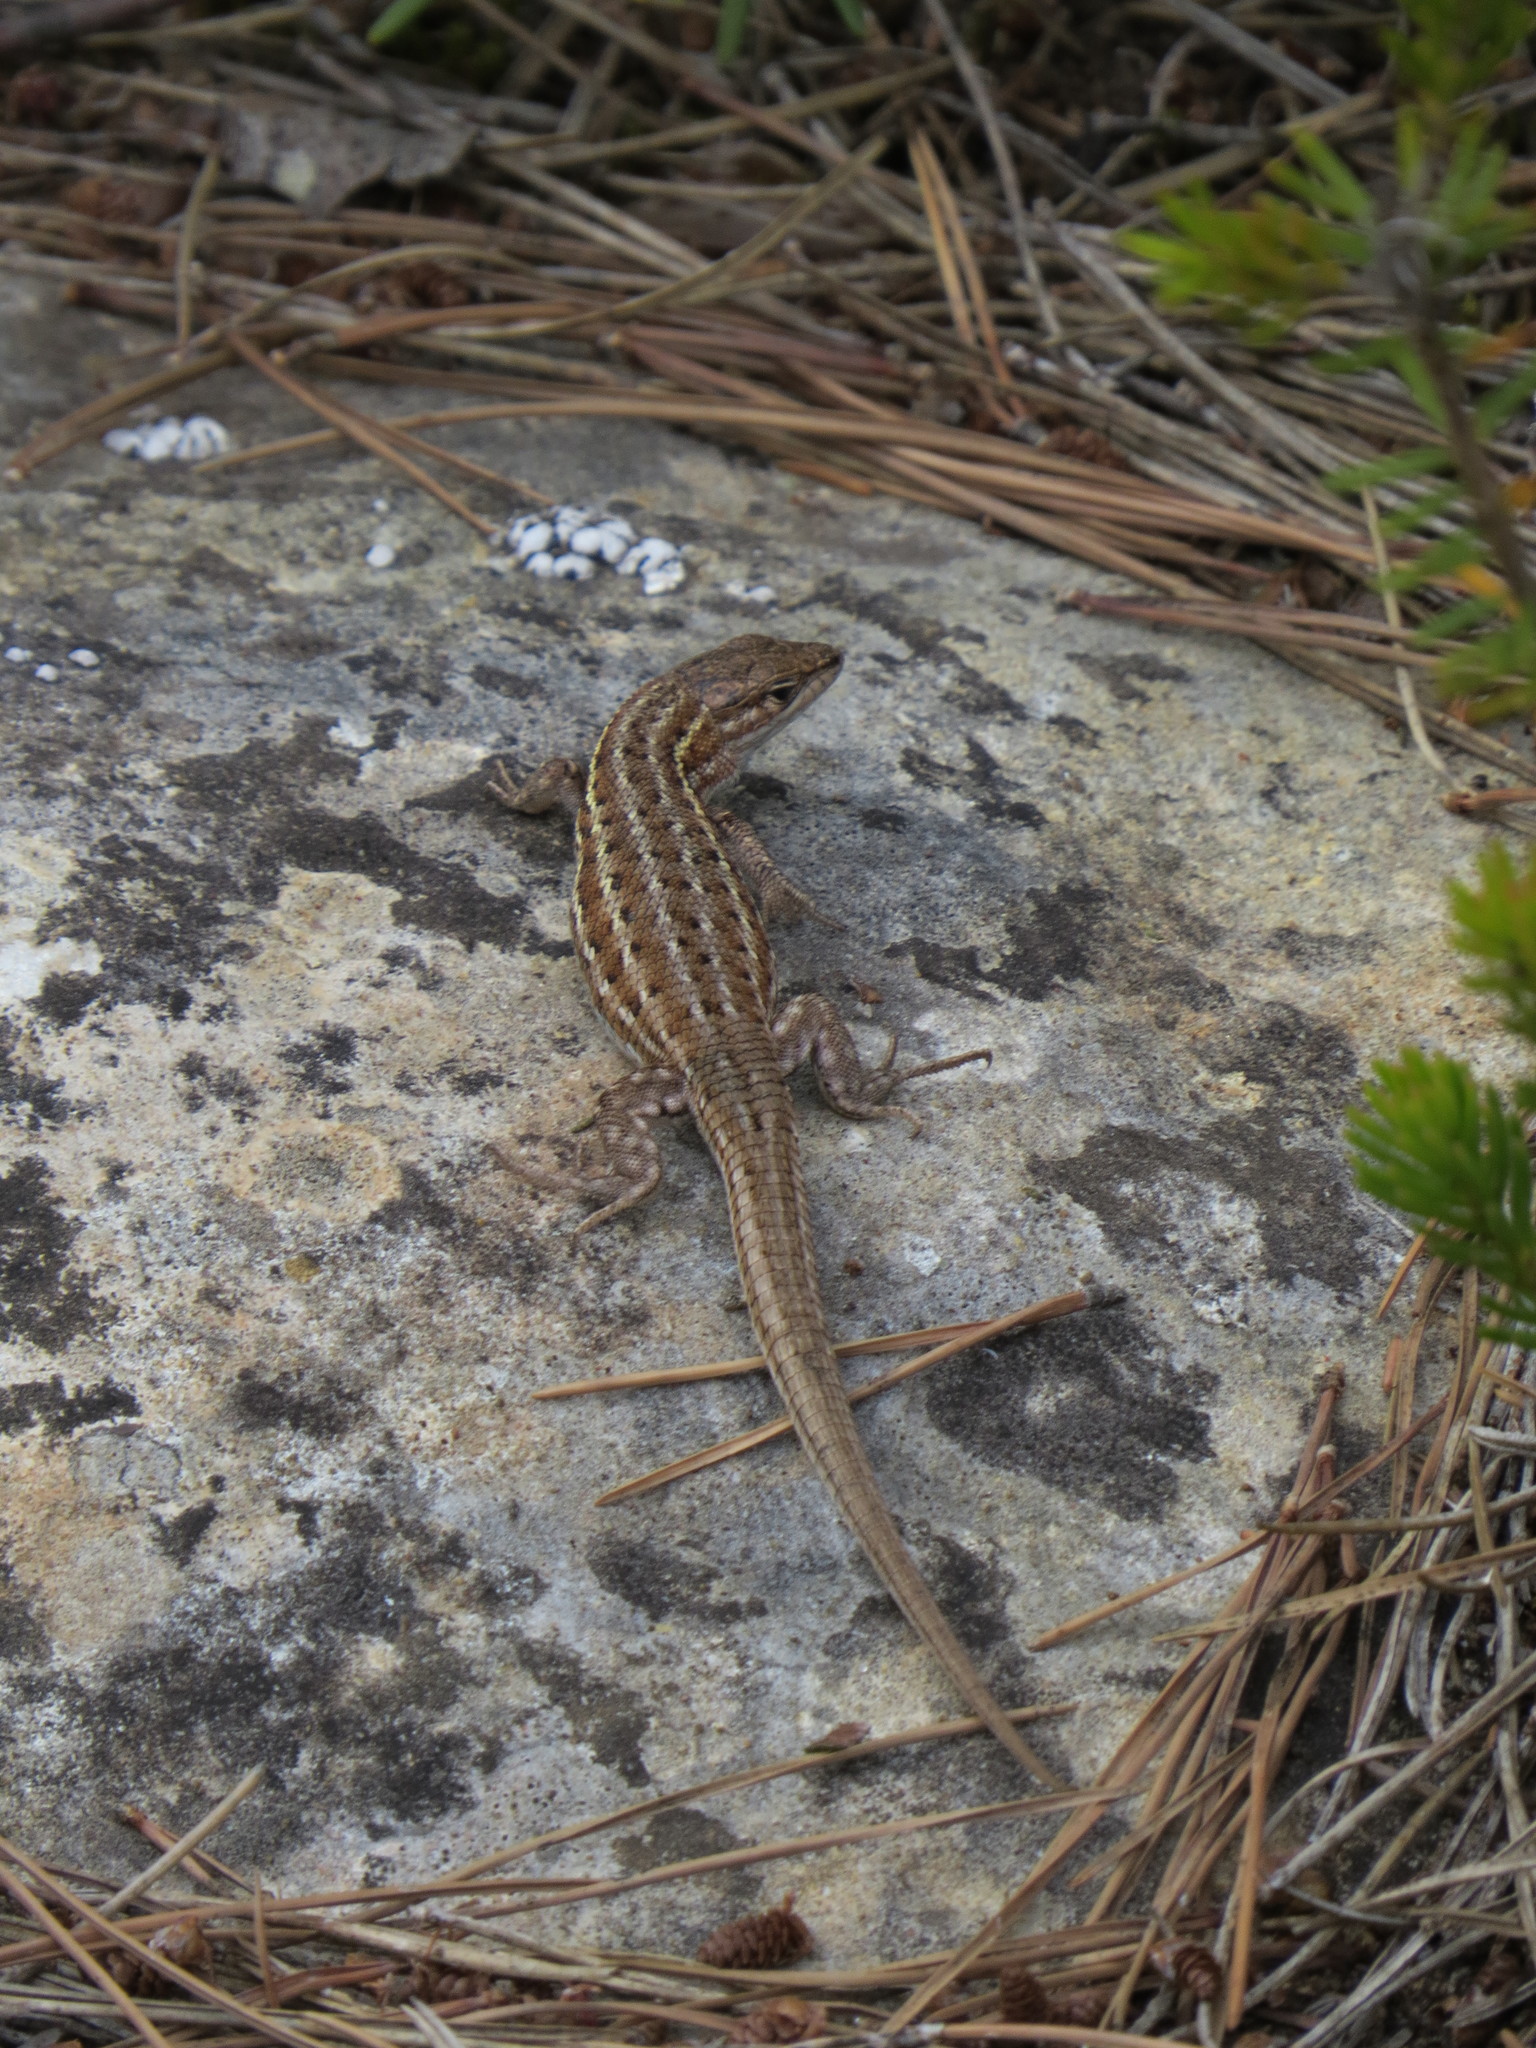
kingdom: Animalia
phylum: Chordata
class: Squamata
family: Lacertidae
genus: Psammodromus
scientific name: Psammodromus edwarsianus
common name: East iberian psammodromus
